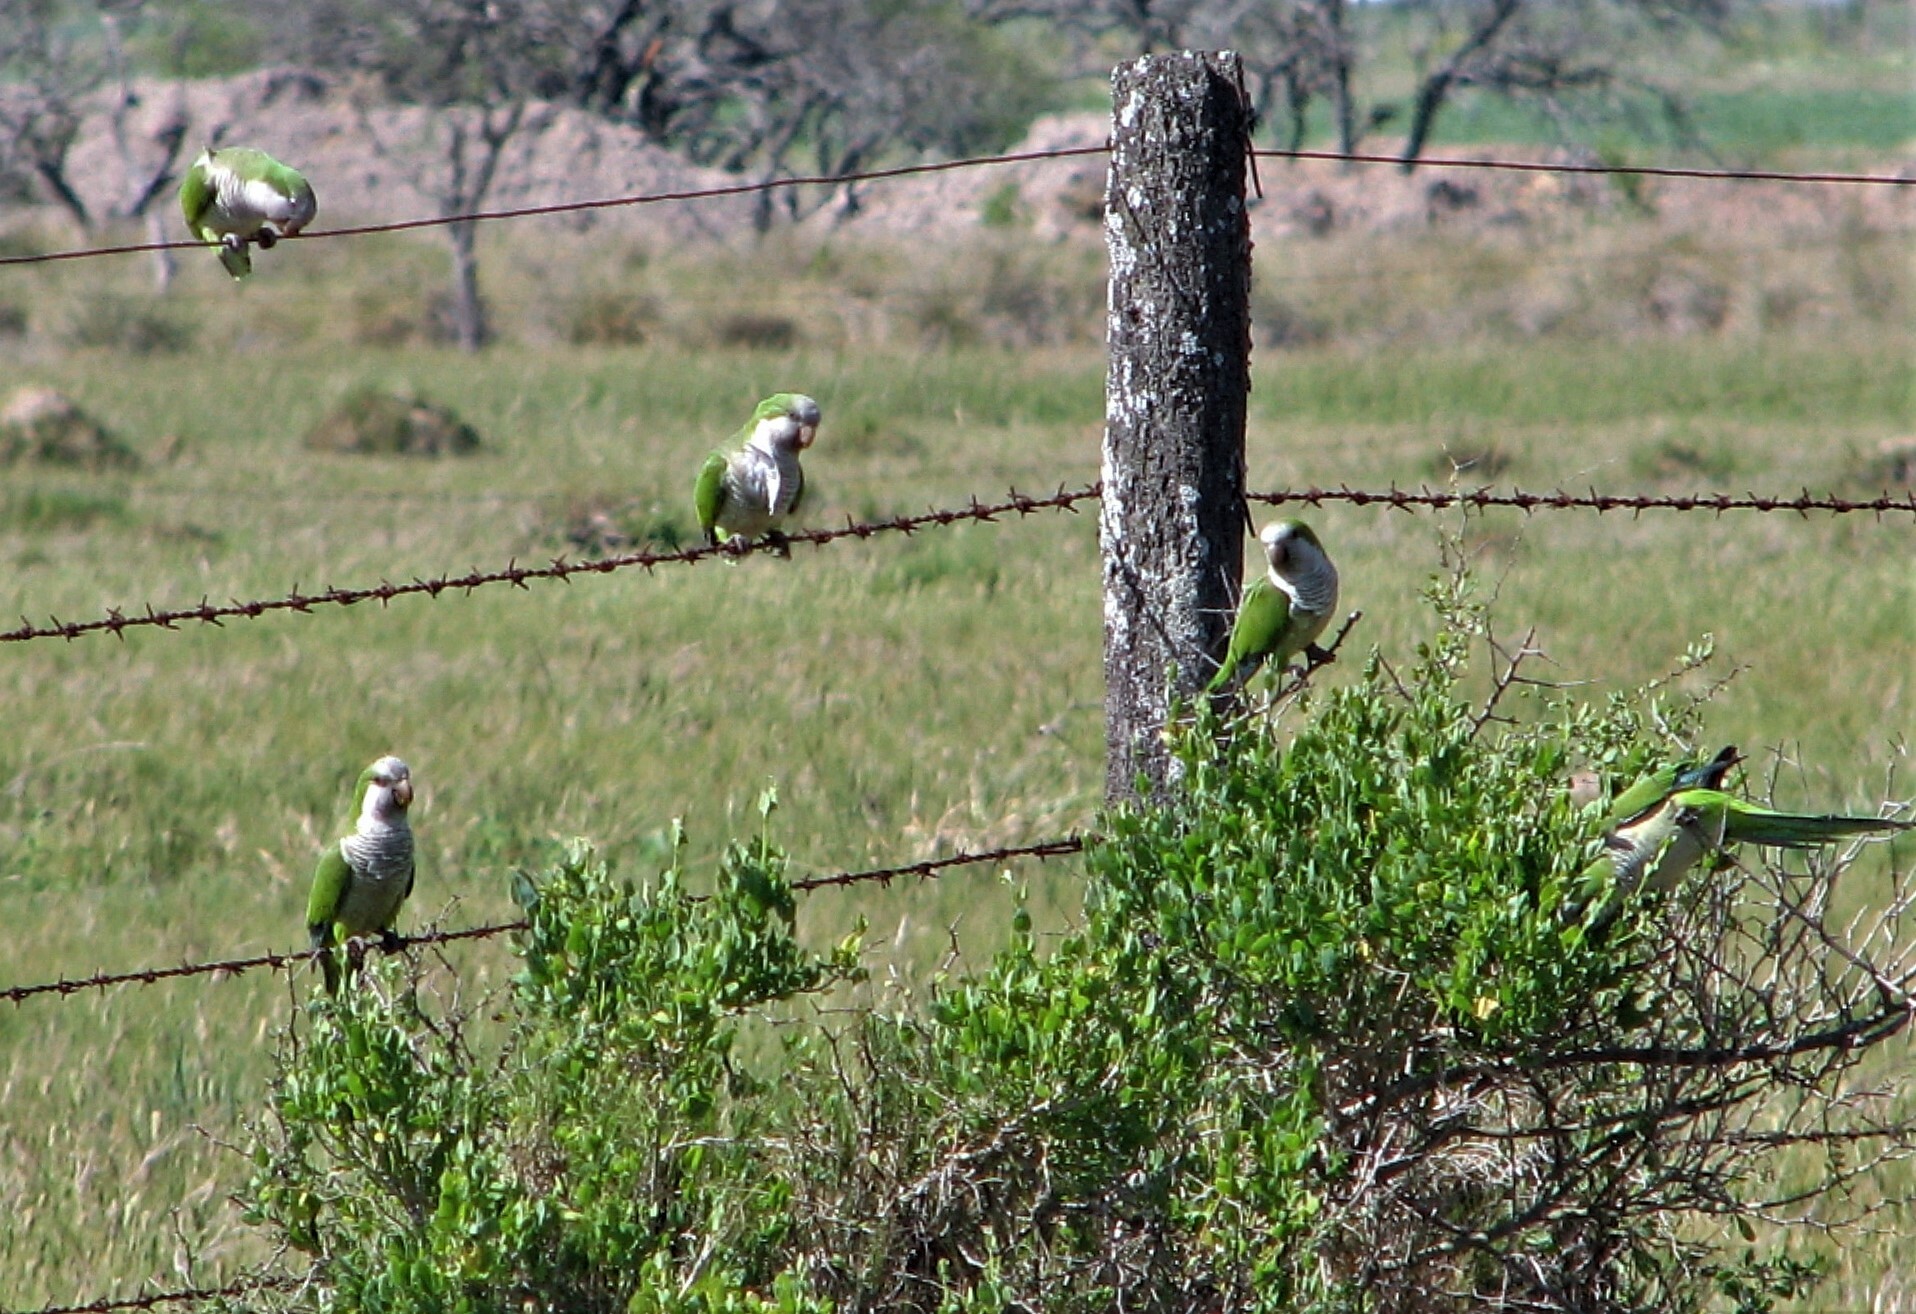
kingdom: Animalia
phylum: Chordata
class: Aves
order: Psittaciformes
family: Psittacidae
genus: Myiopsitta
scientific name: Myiopsitta monachus
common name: Monk parakeet
